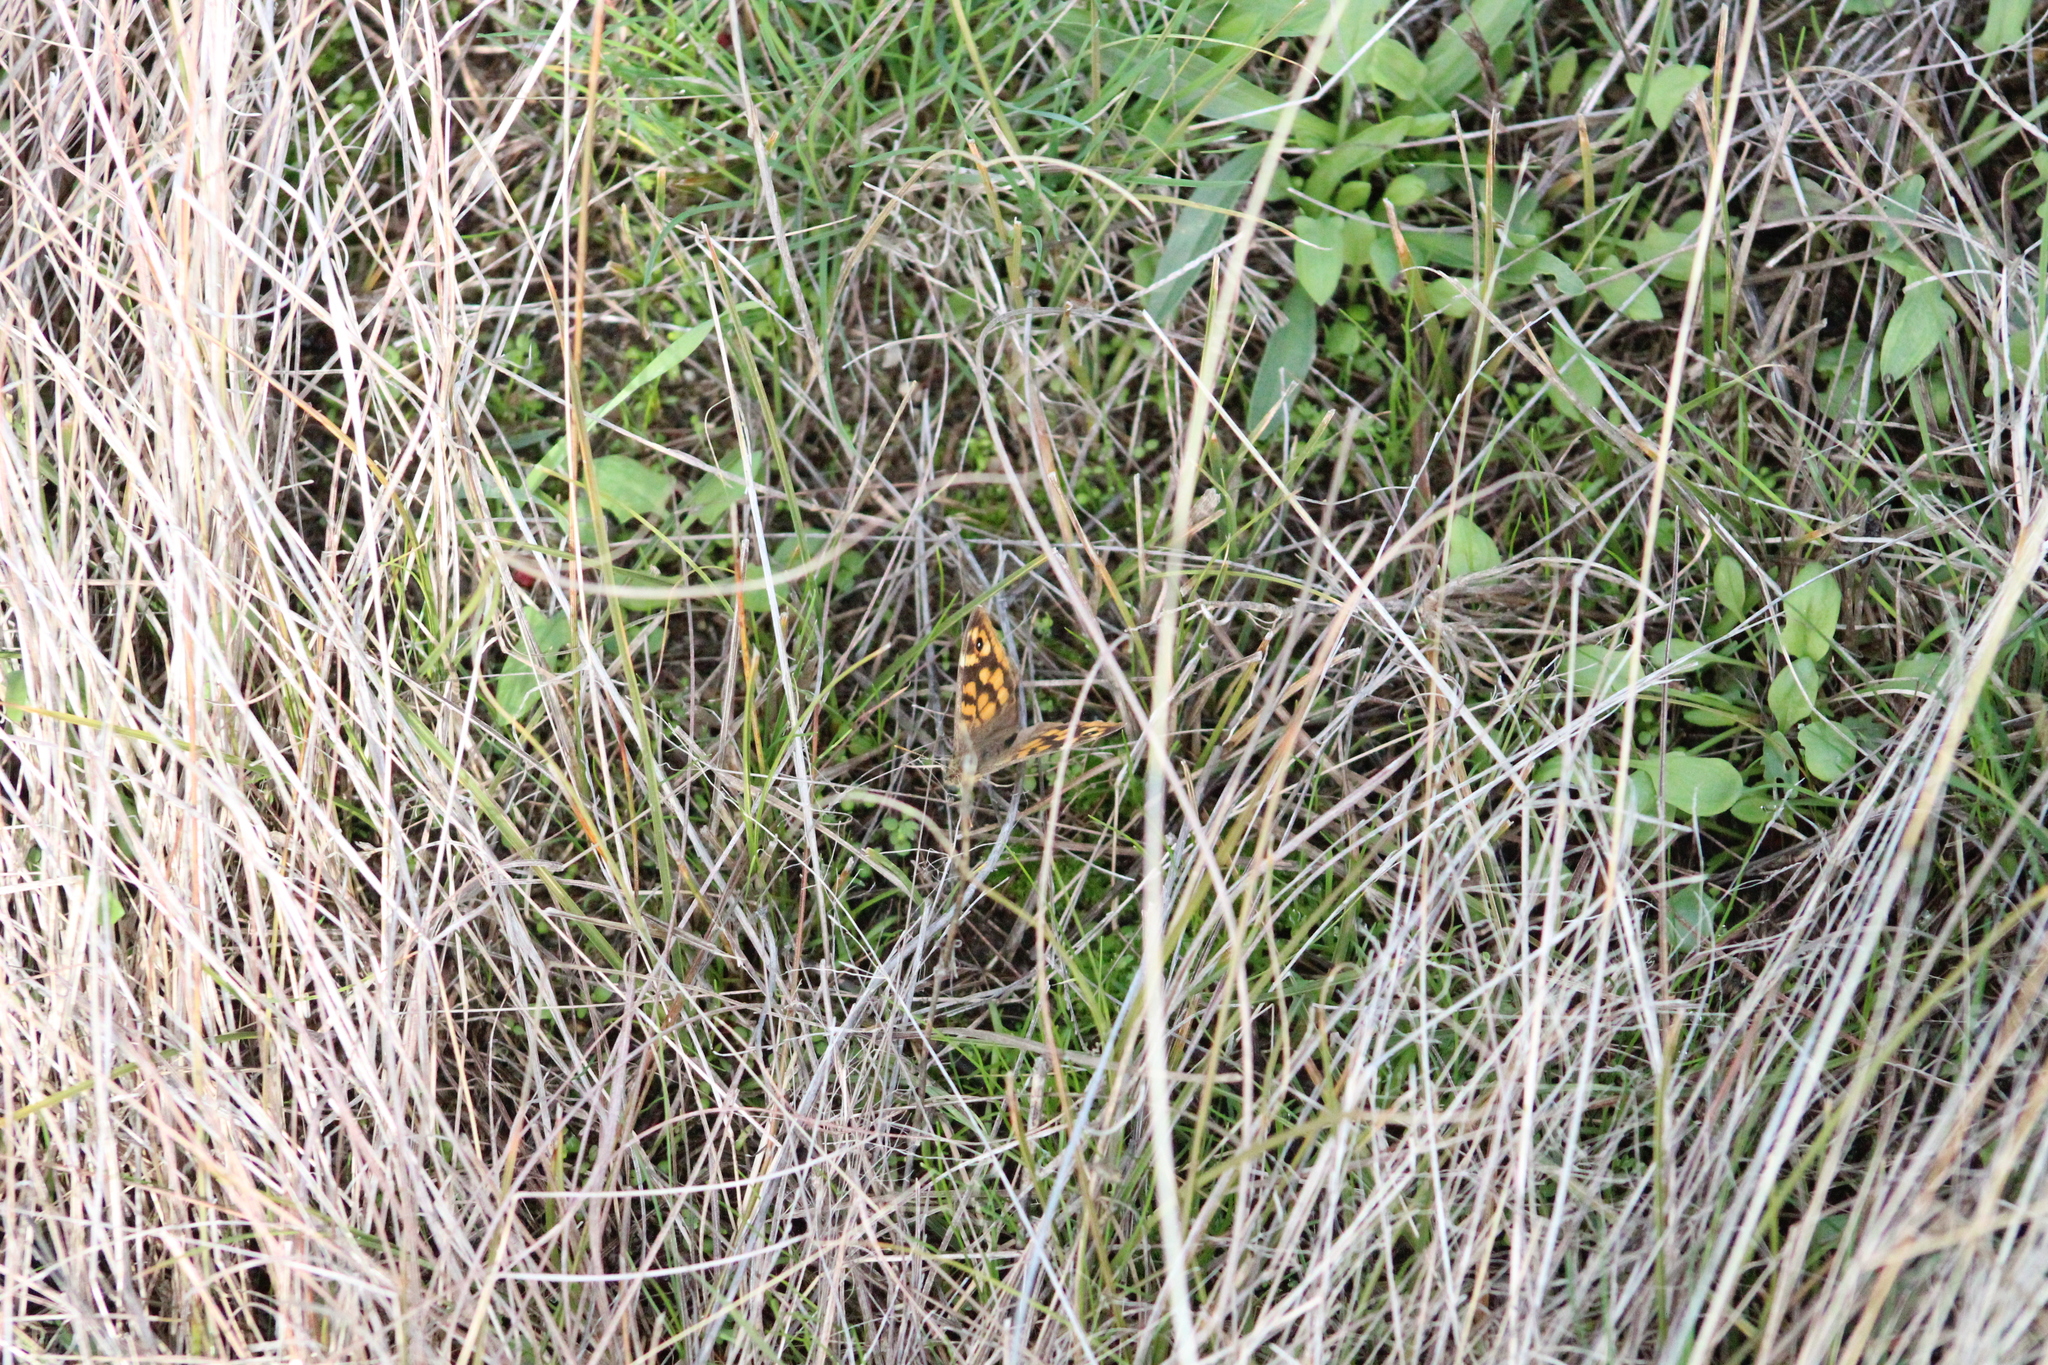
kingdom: Animalia
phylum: Arthropoda
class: Insecta
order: Lepidoptera
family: Nymphalidae
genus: Pararge
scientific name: Pararge aegeria
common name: Speckled wood
